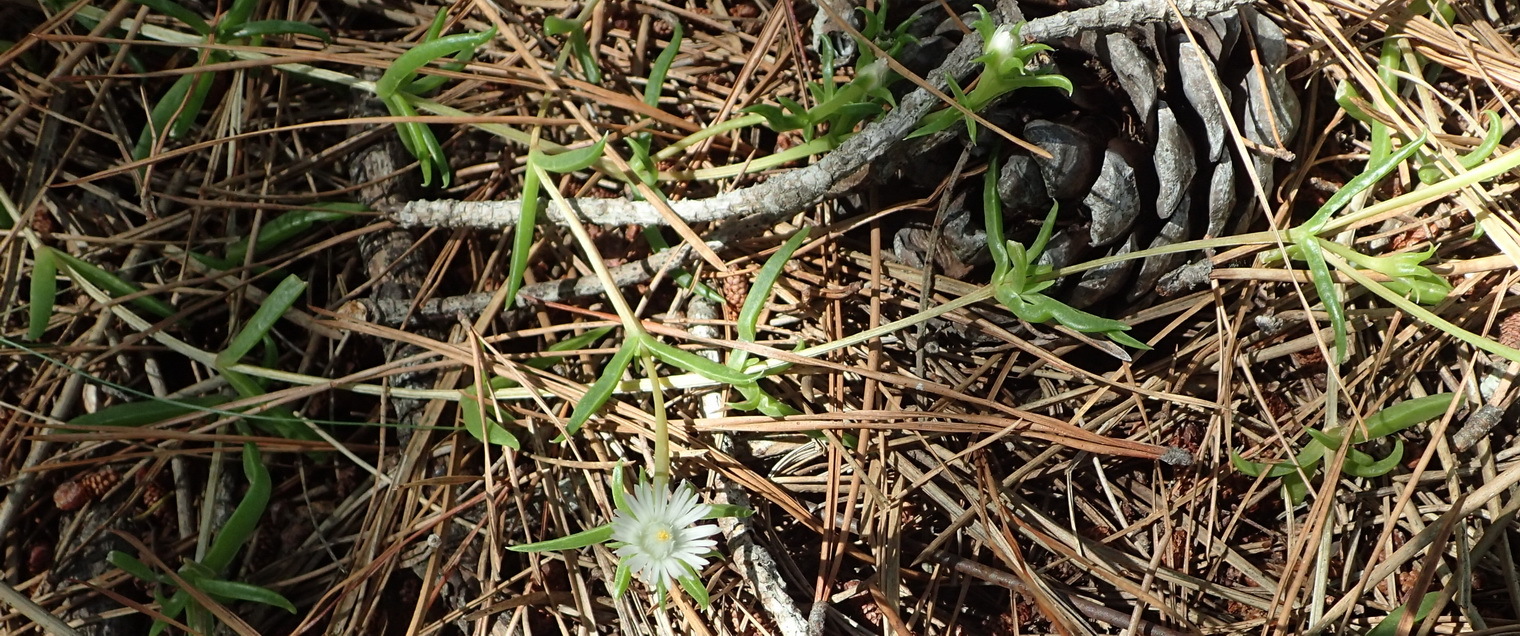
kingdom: Plantae
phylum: Tracheophyta
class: Magnoliopsida
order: Caryophyllales
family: Aizoaceae
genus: Delosperma
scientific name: Delosperma inconspicuum
